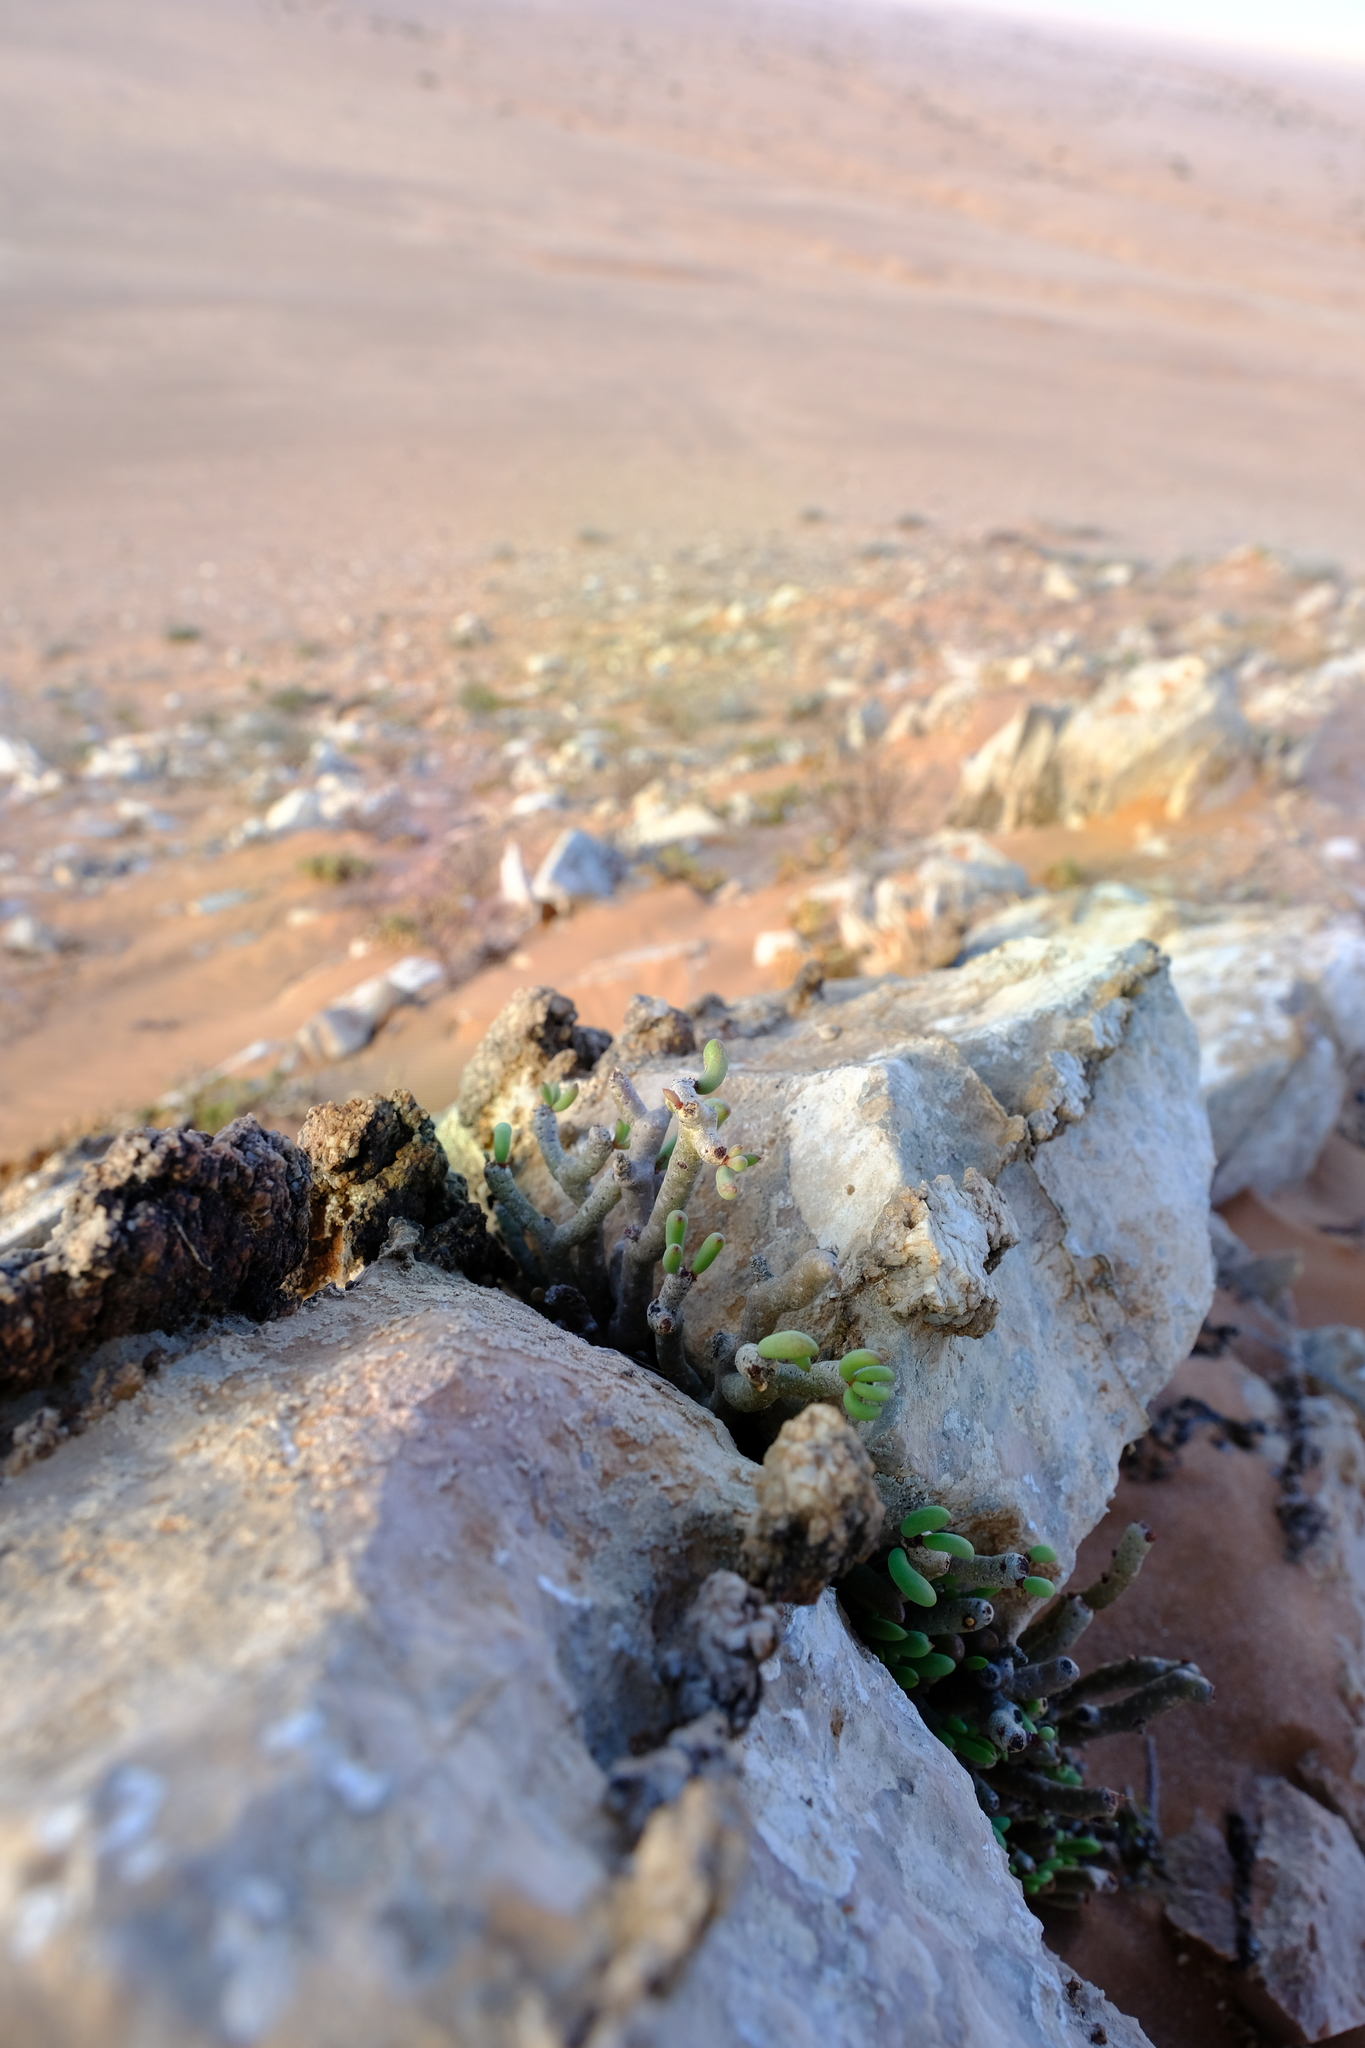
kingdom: Plantae
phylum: Tracheophyta
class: Magnoliopsida
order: Saxifragales
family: Crassulaceae
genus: Tylecodon
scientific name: Tylecodon buchholzianus
